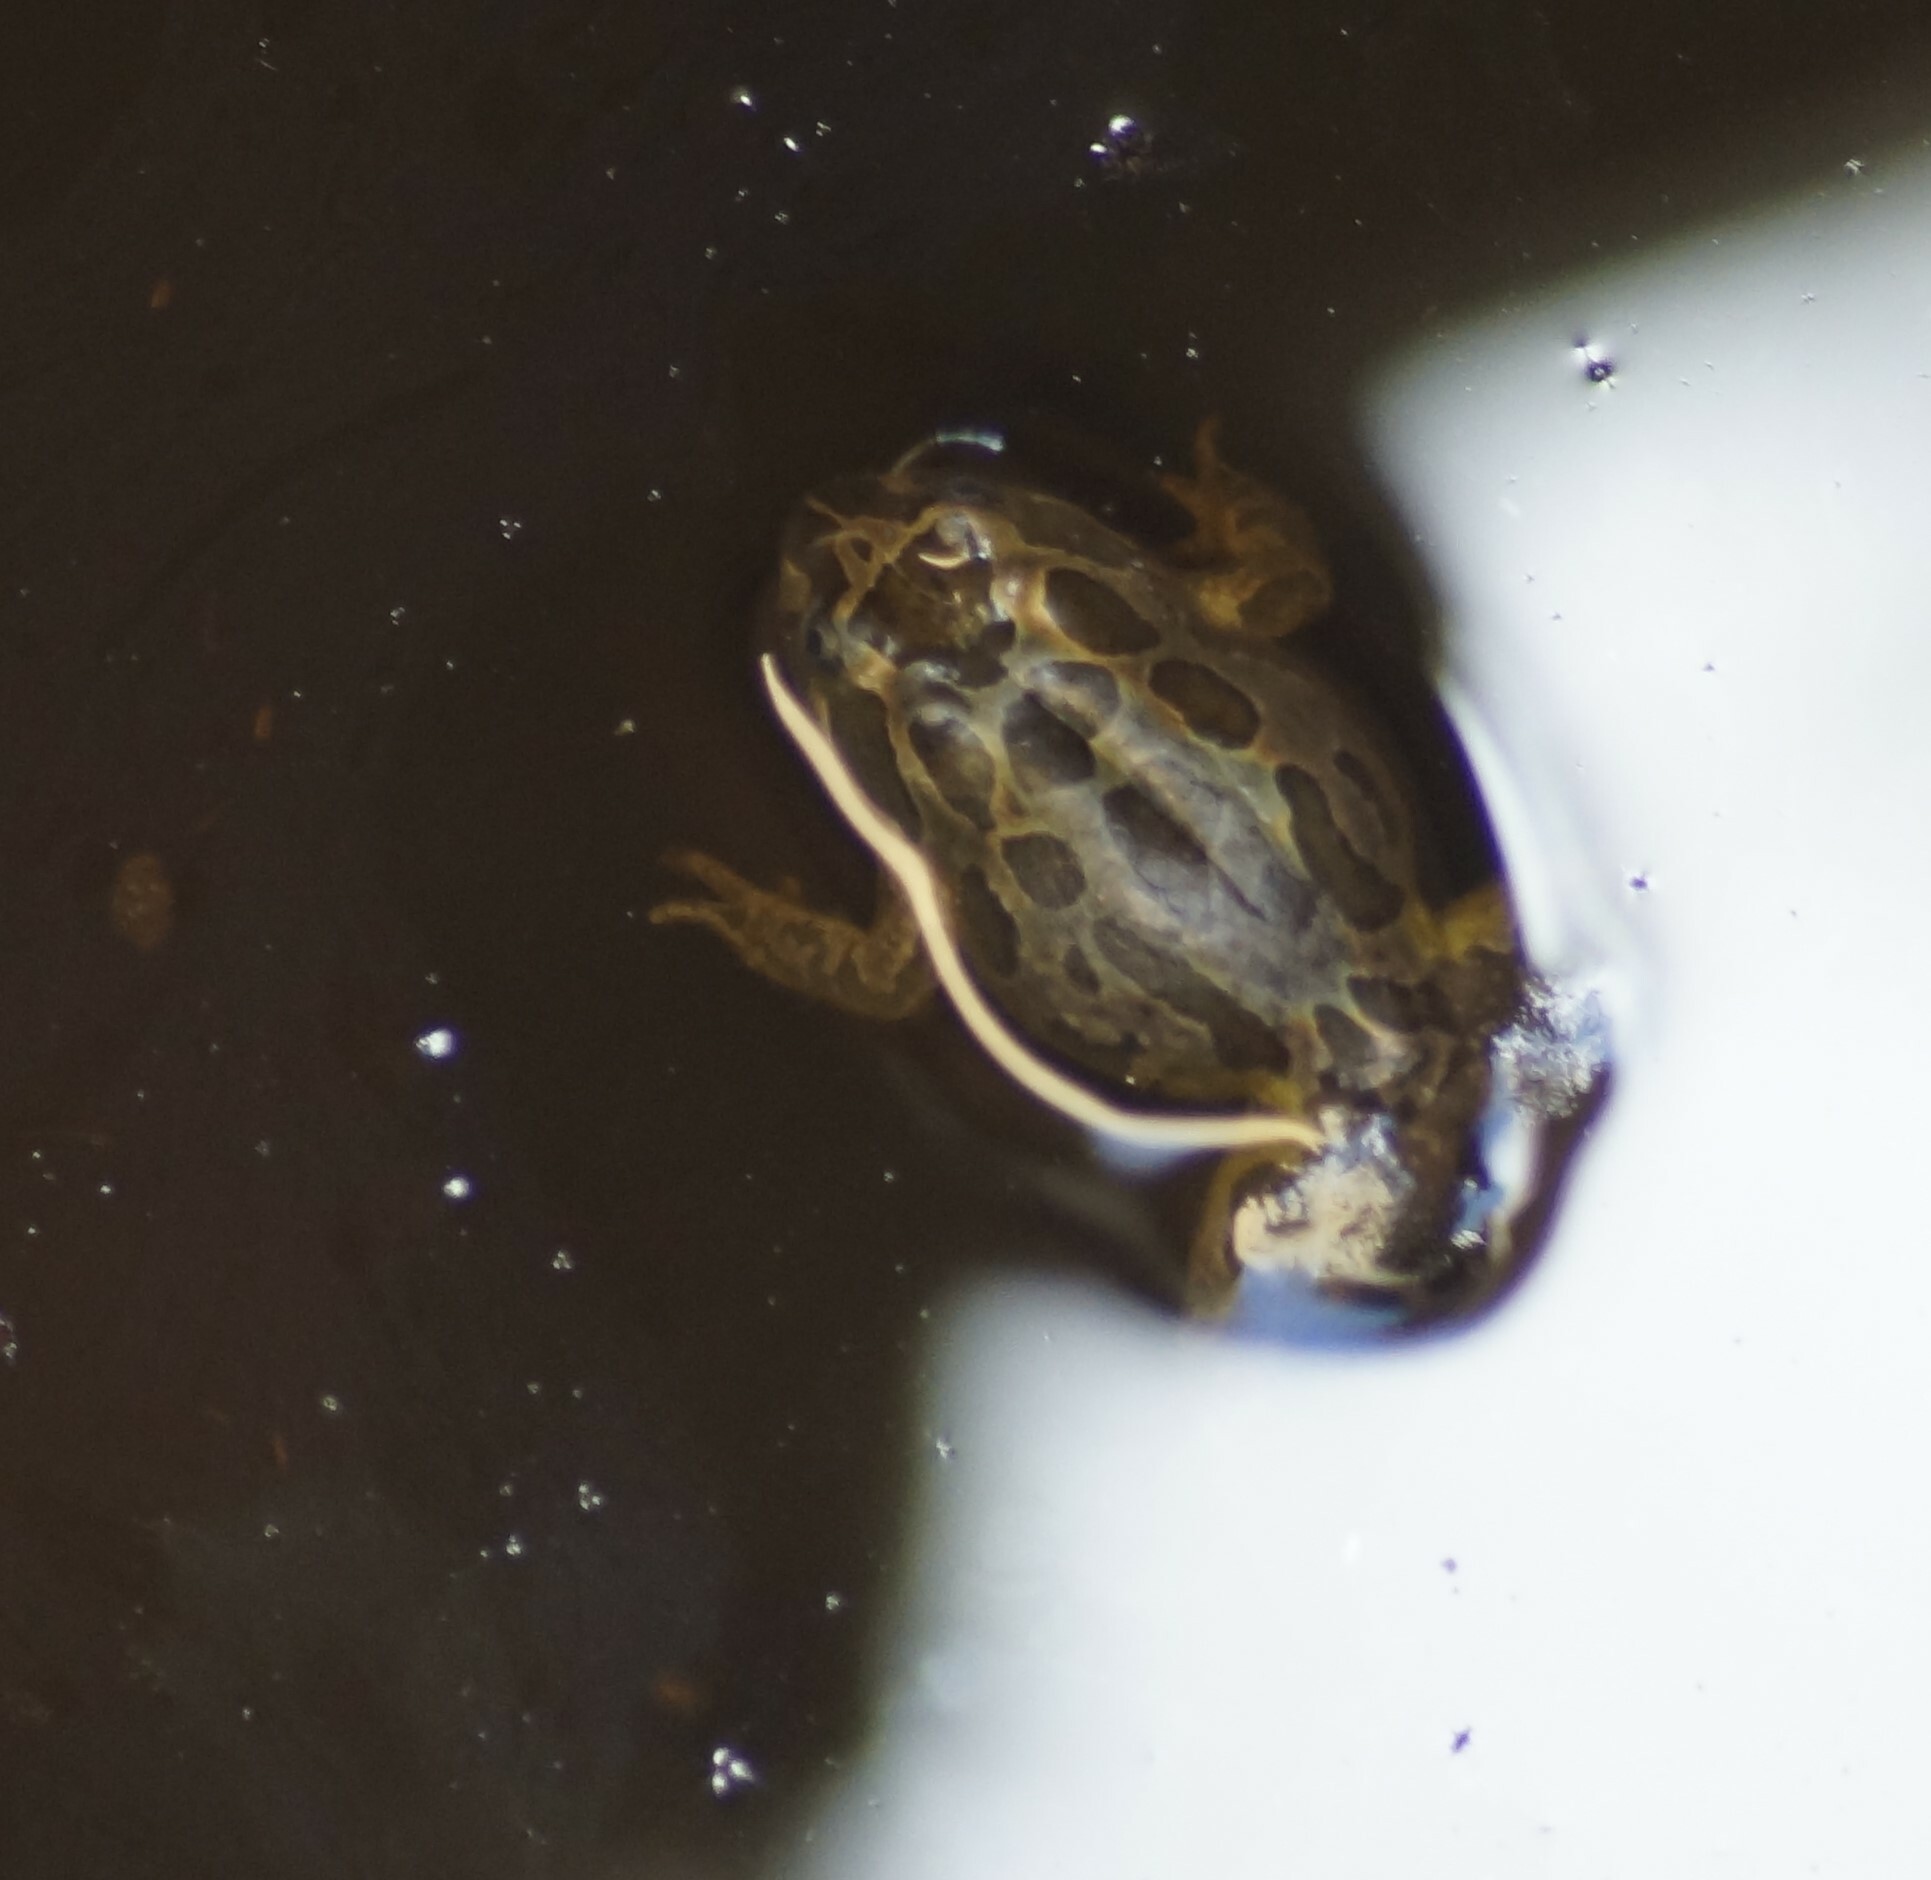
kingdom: Animalia
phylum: Chordata
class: Amphibia
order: Anura
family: Limnodynastidae
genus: Limnodynastes
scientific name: Limnodynastes tasmaniensis
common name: Spotted marsh frog
